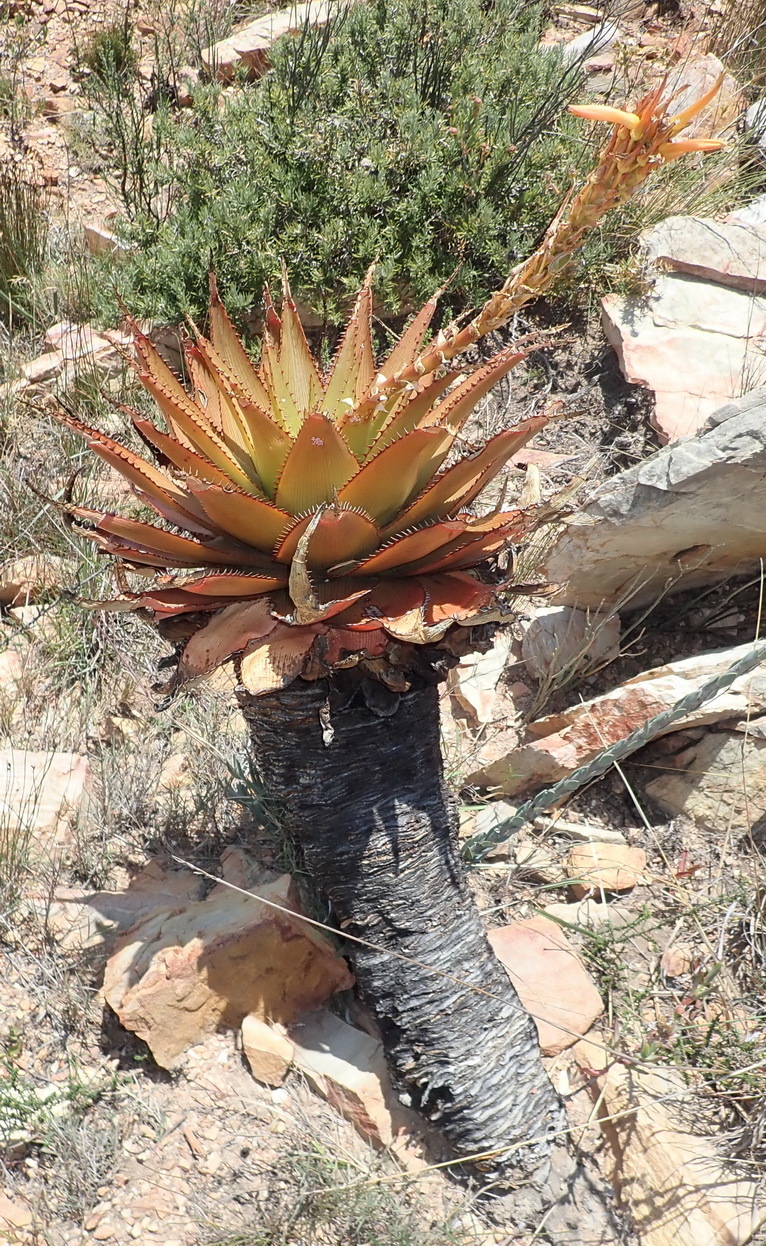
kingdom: Plantae
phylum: Tracheophyta
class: Liliopsida
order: Asparagales
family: Asphodelaceae
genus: Aloe
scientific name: Aloe lineata
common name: Lined red-spined aloe
